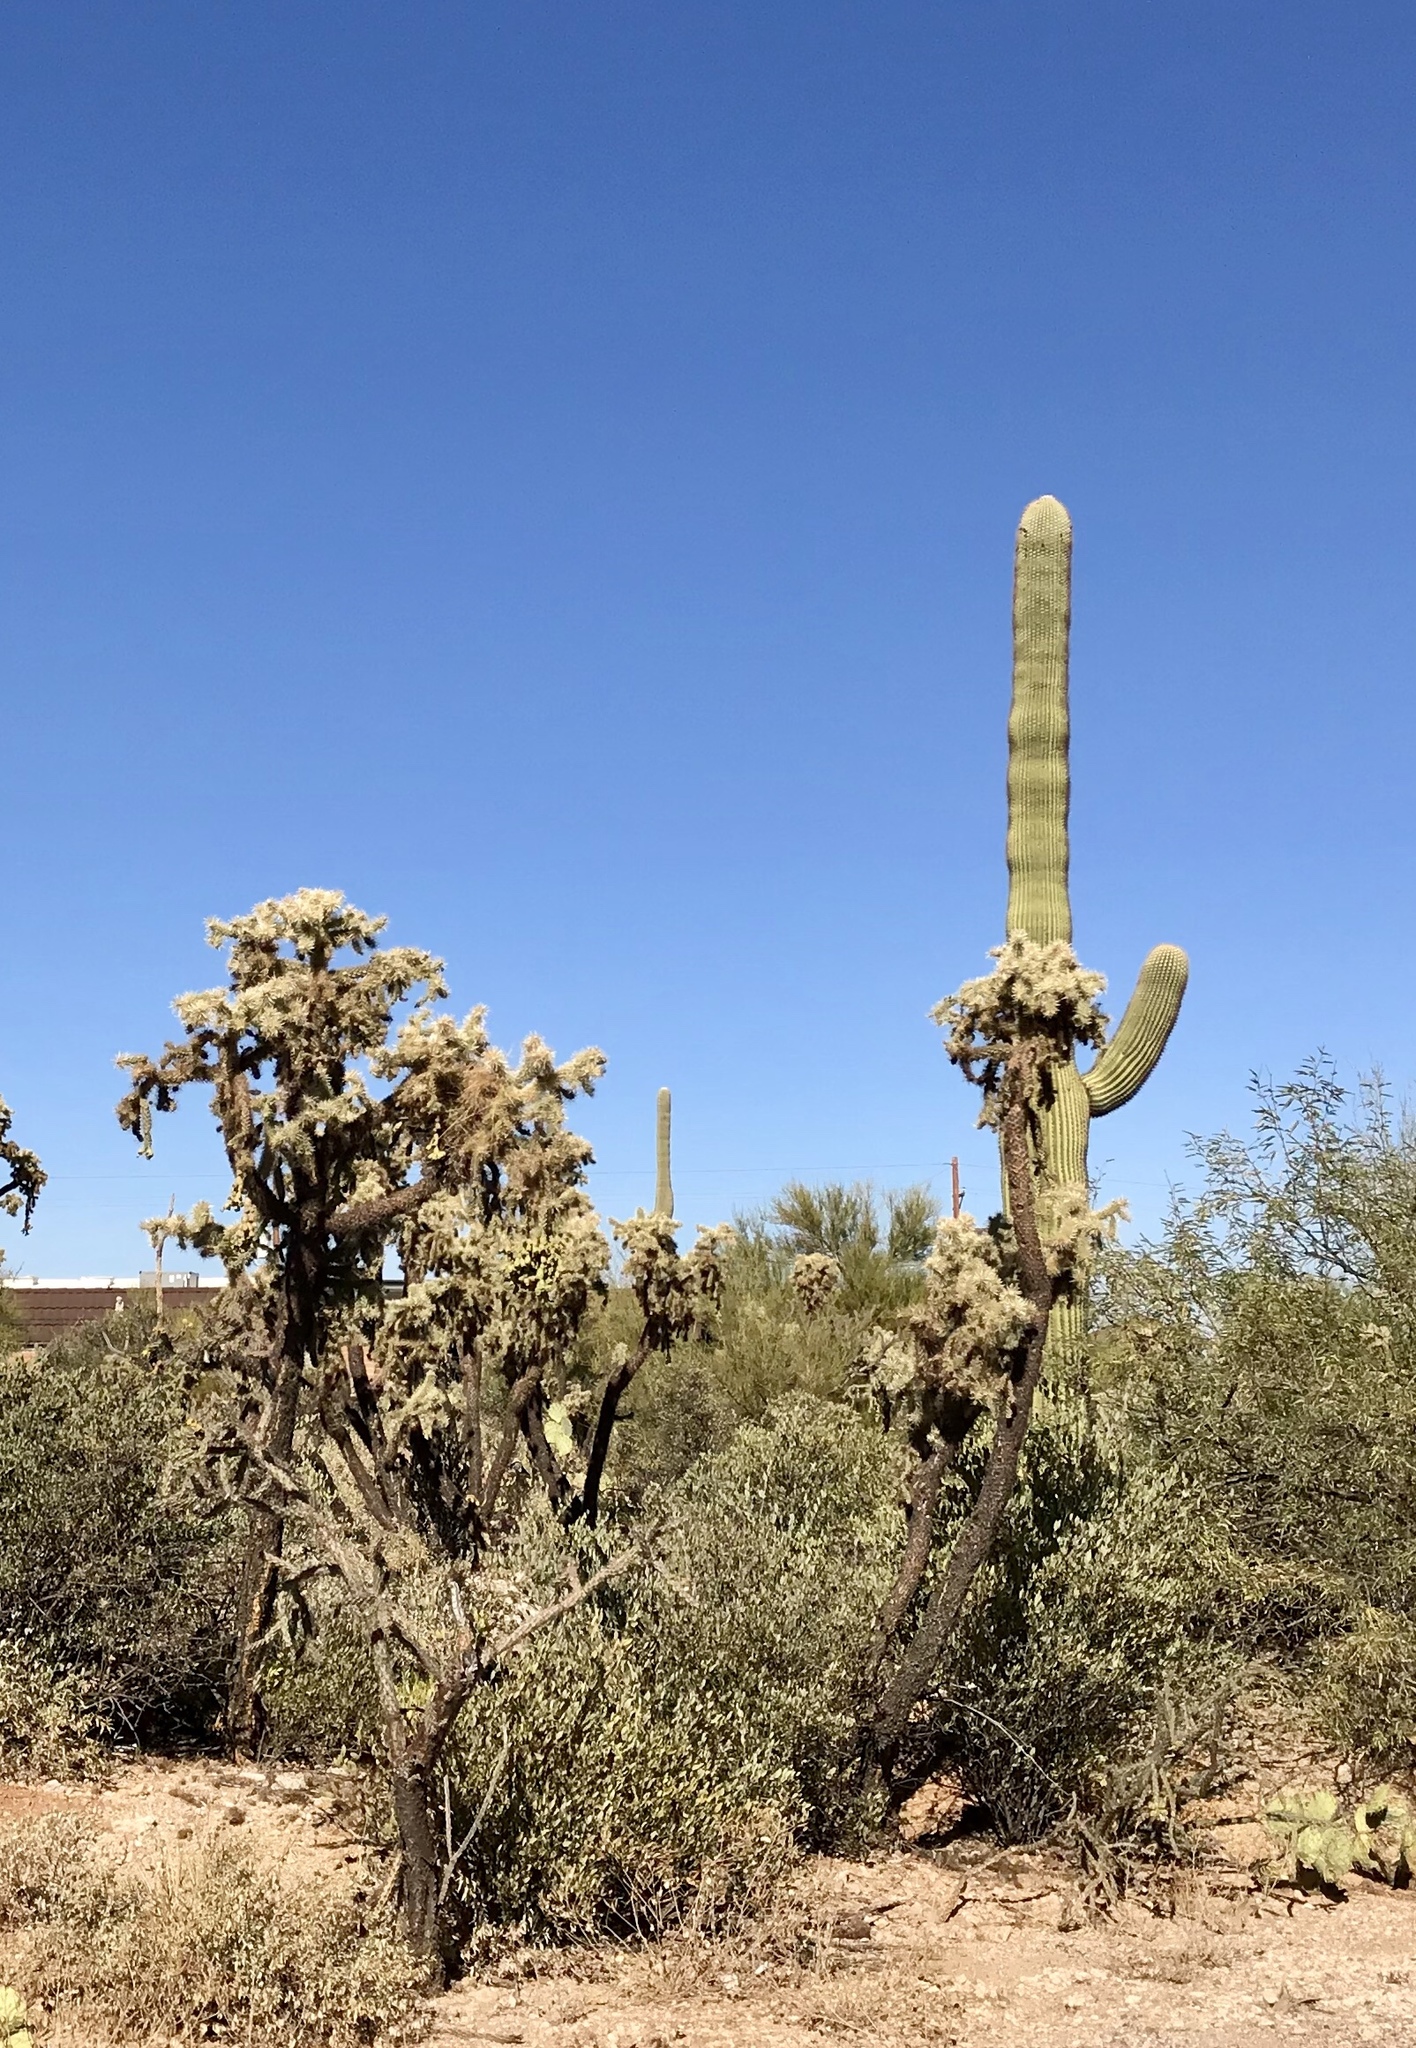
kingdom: Plantae
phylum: Tracheophyta
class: Magnoliopsida
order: Caryophyllales
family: Cactaceae
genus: Carnegiea
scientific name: Carnegiea gigantea
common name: Saguaro
